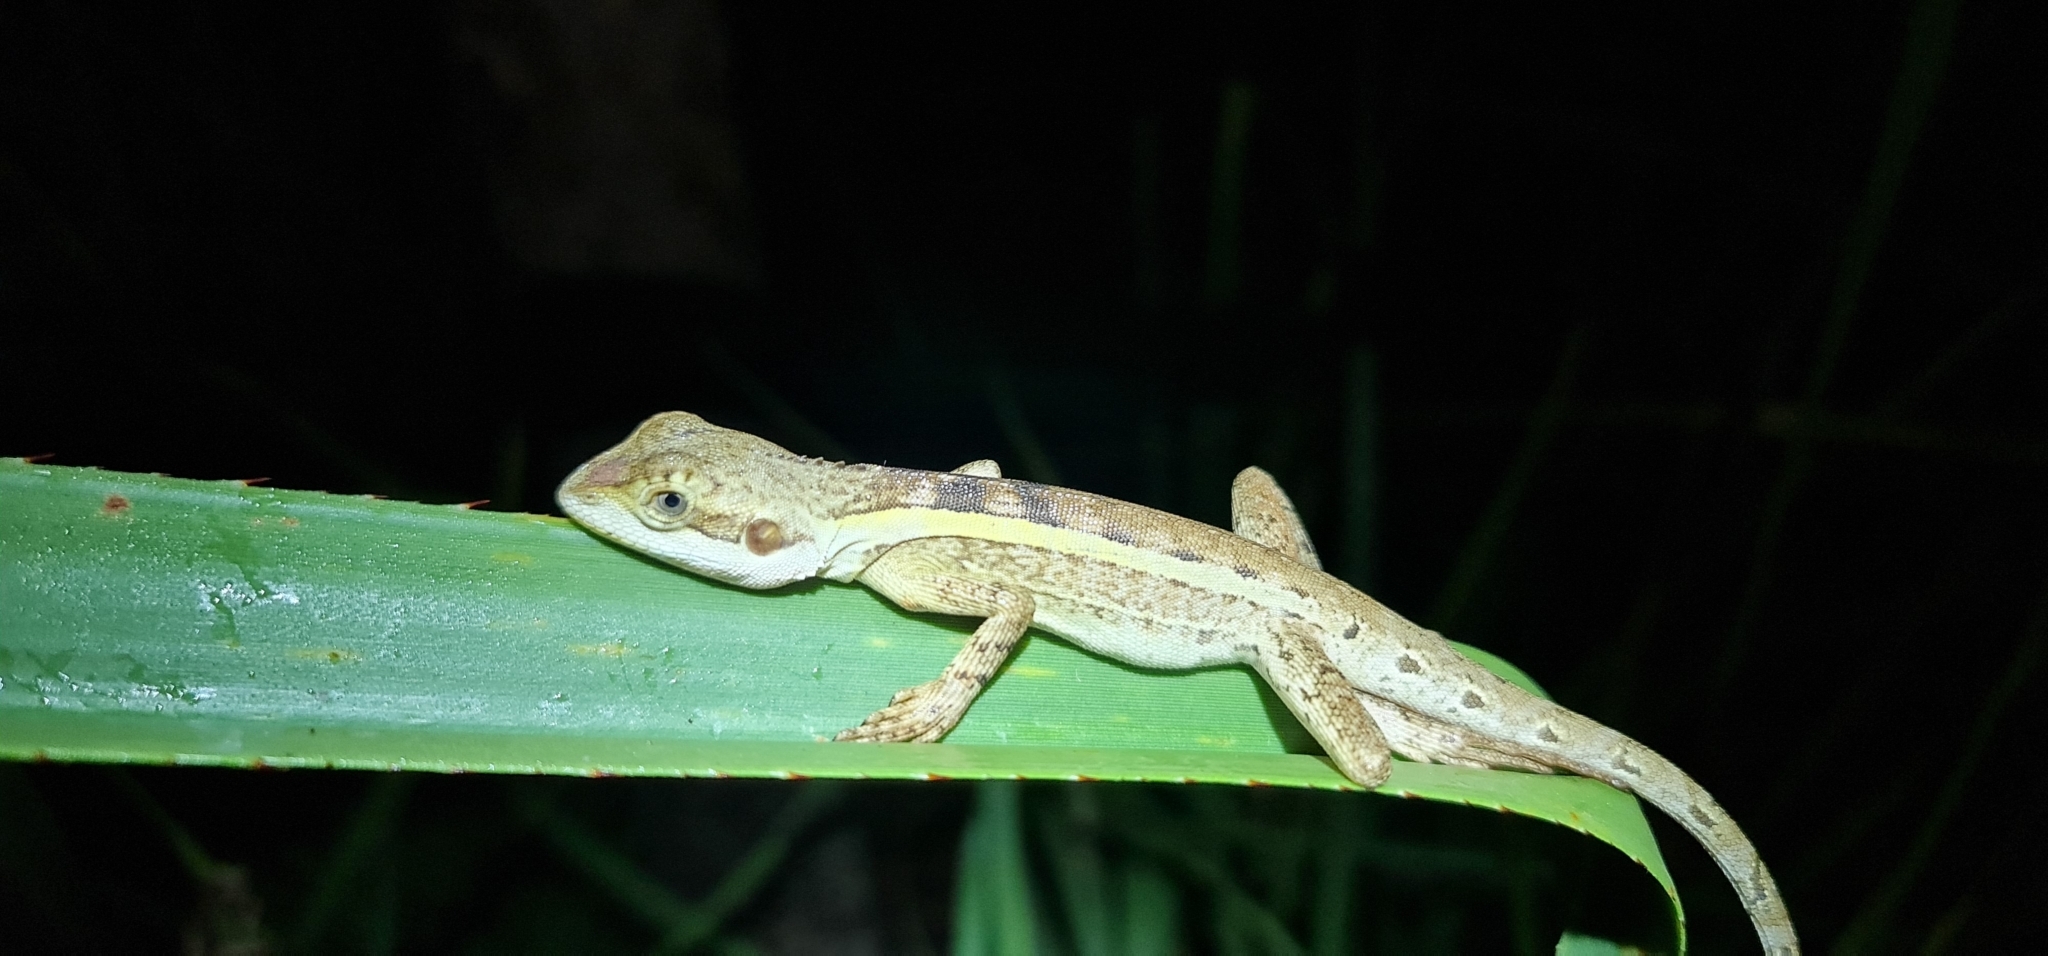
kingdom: Animalia
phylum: Chordata
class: Squamata
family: Agamidae
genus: Tropicagama
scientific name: Tropicagama temporalis
